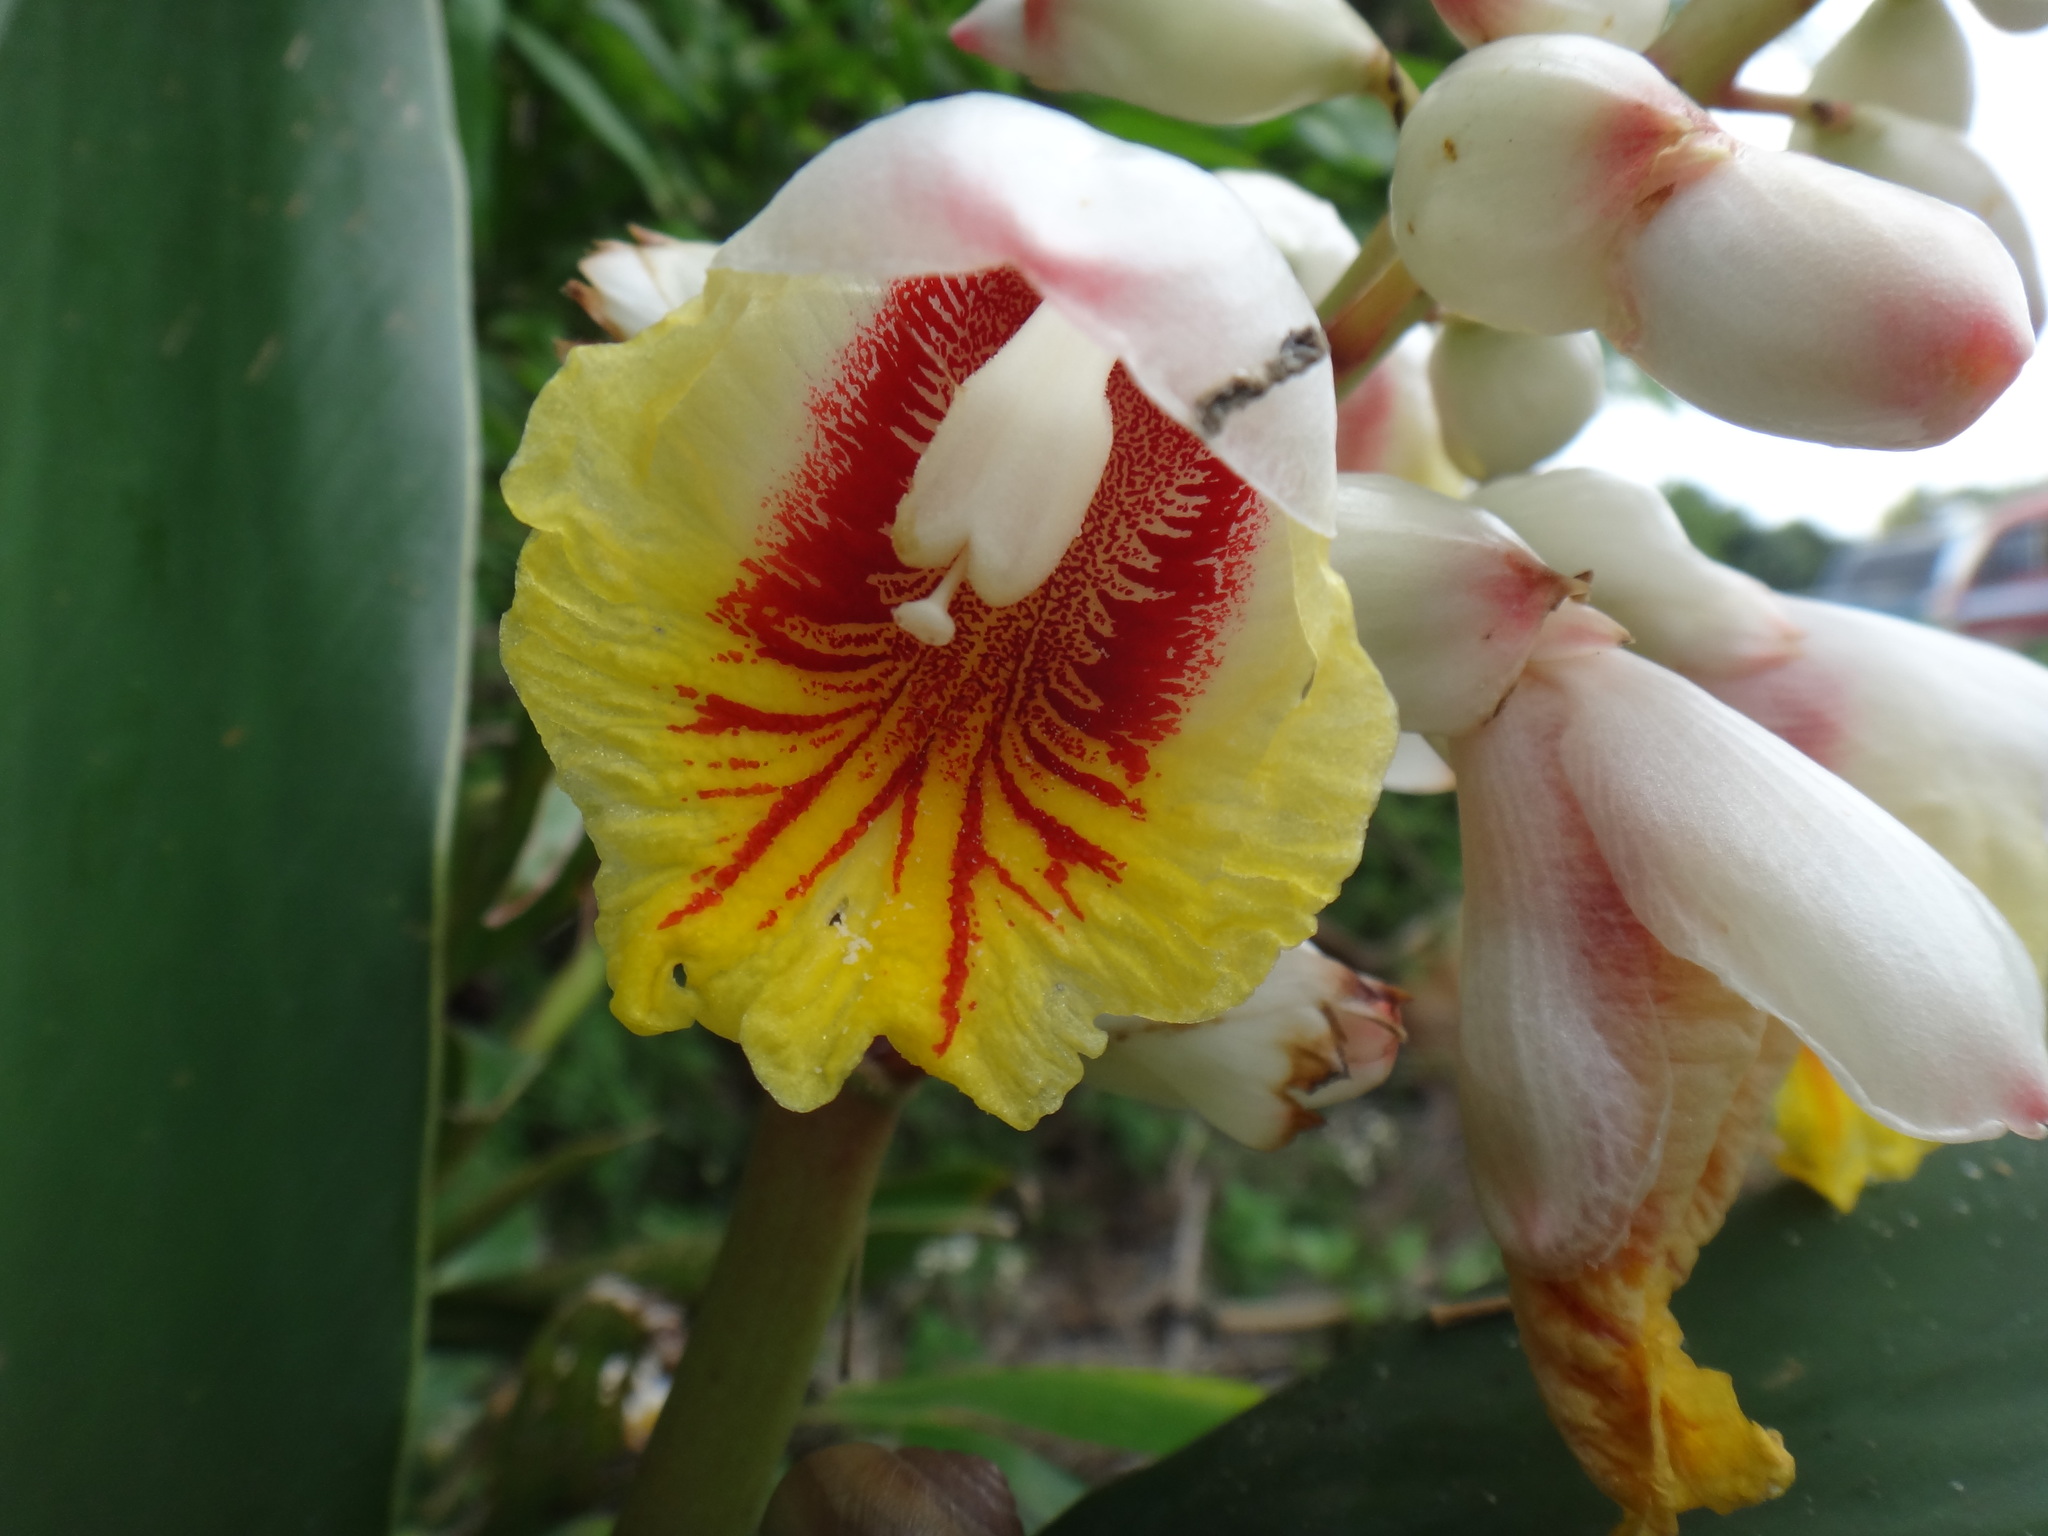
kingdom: Plantae
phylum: Tracheophyta
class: Liliopsida
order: Zingiberales
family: Zingiberaceae
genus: Alpinia
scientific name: Alpinia koshunensis
